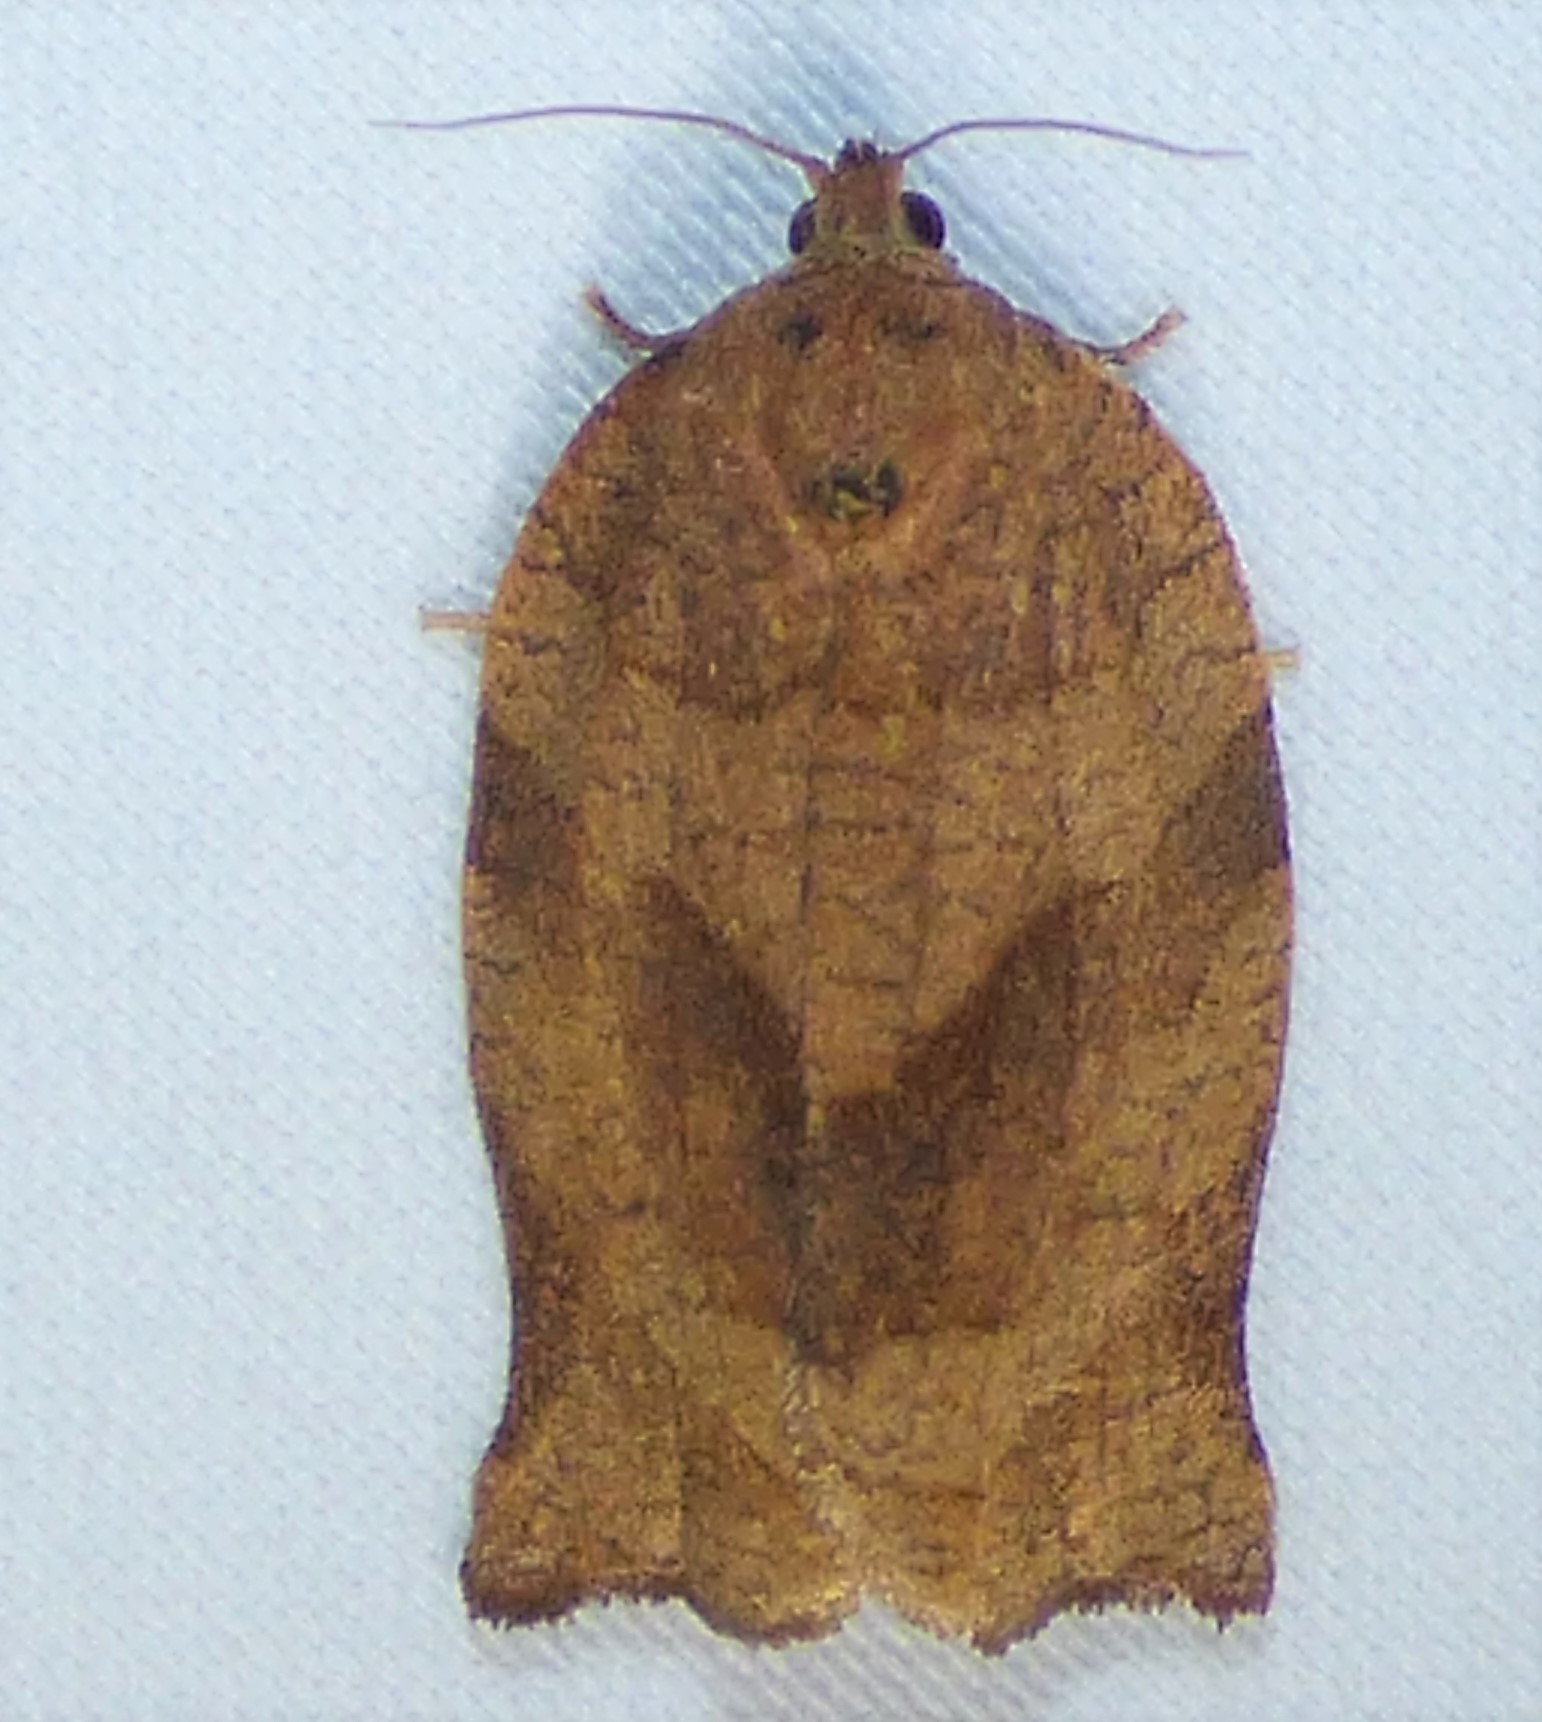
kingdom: Animalia
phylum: Arthropoda
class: Insecta
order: Lepidoptera
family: Tortricidae
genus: Choristoneura
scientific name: Choristoneura rosaceana
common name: Oblique-banded leafroller moth
